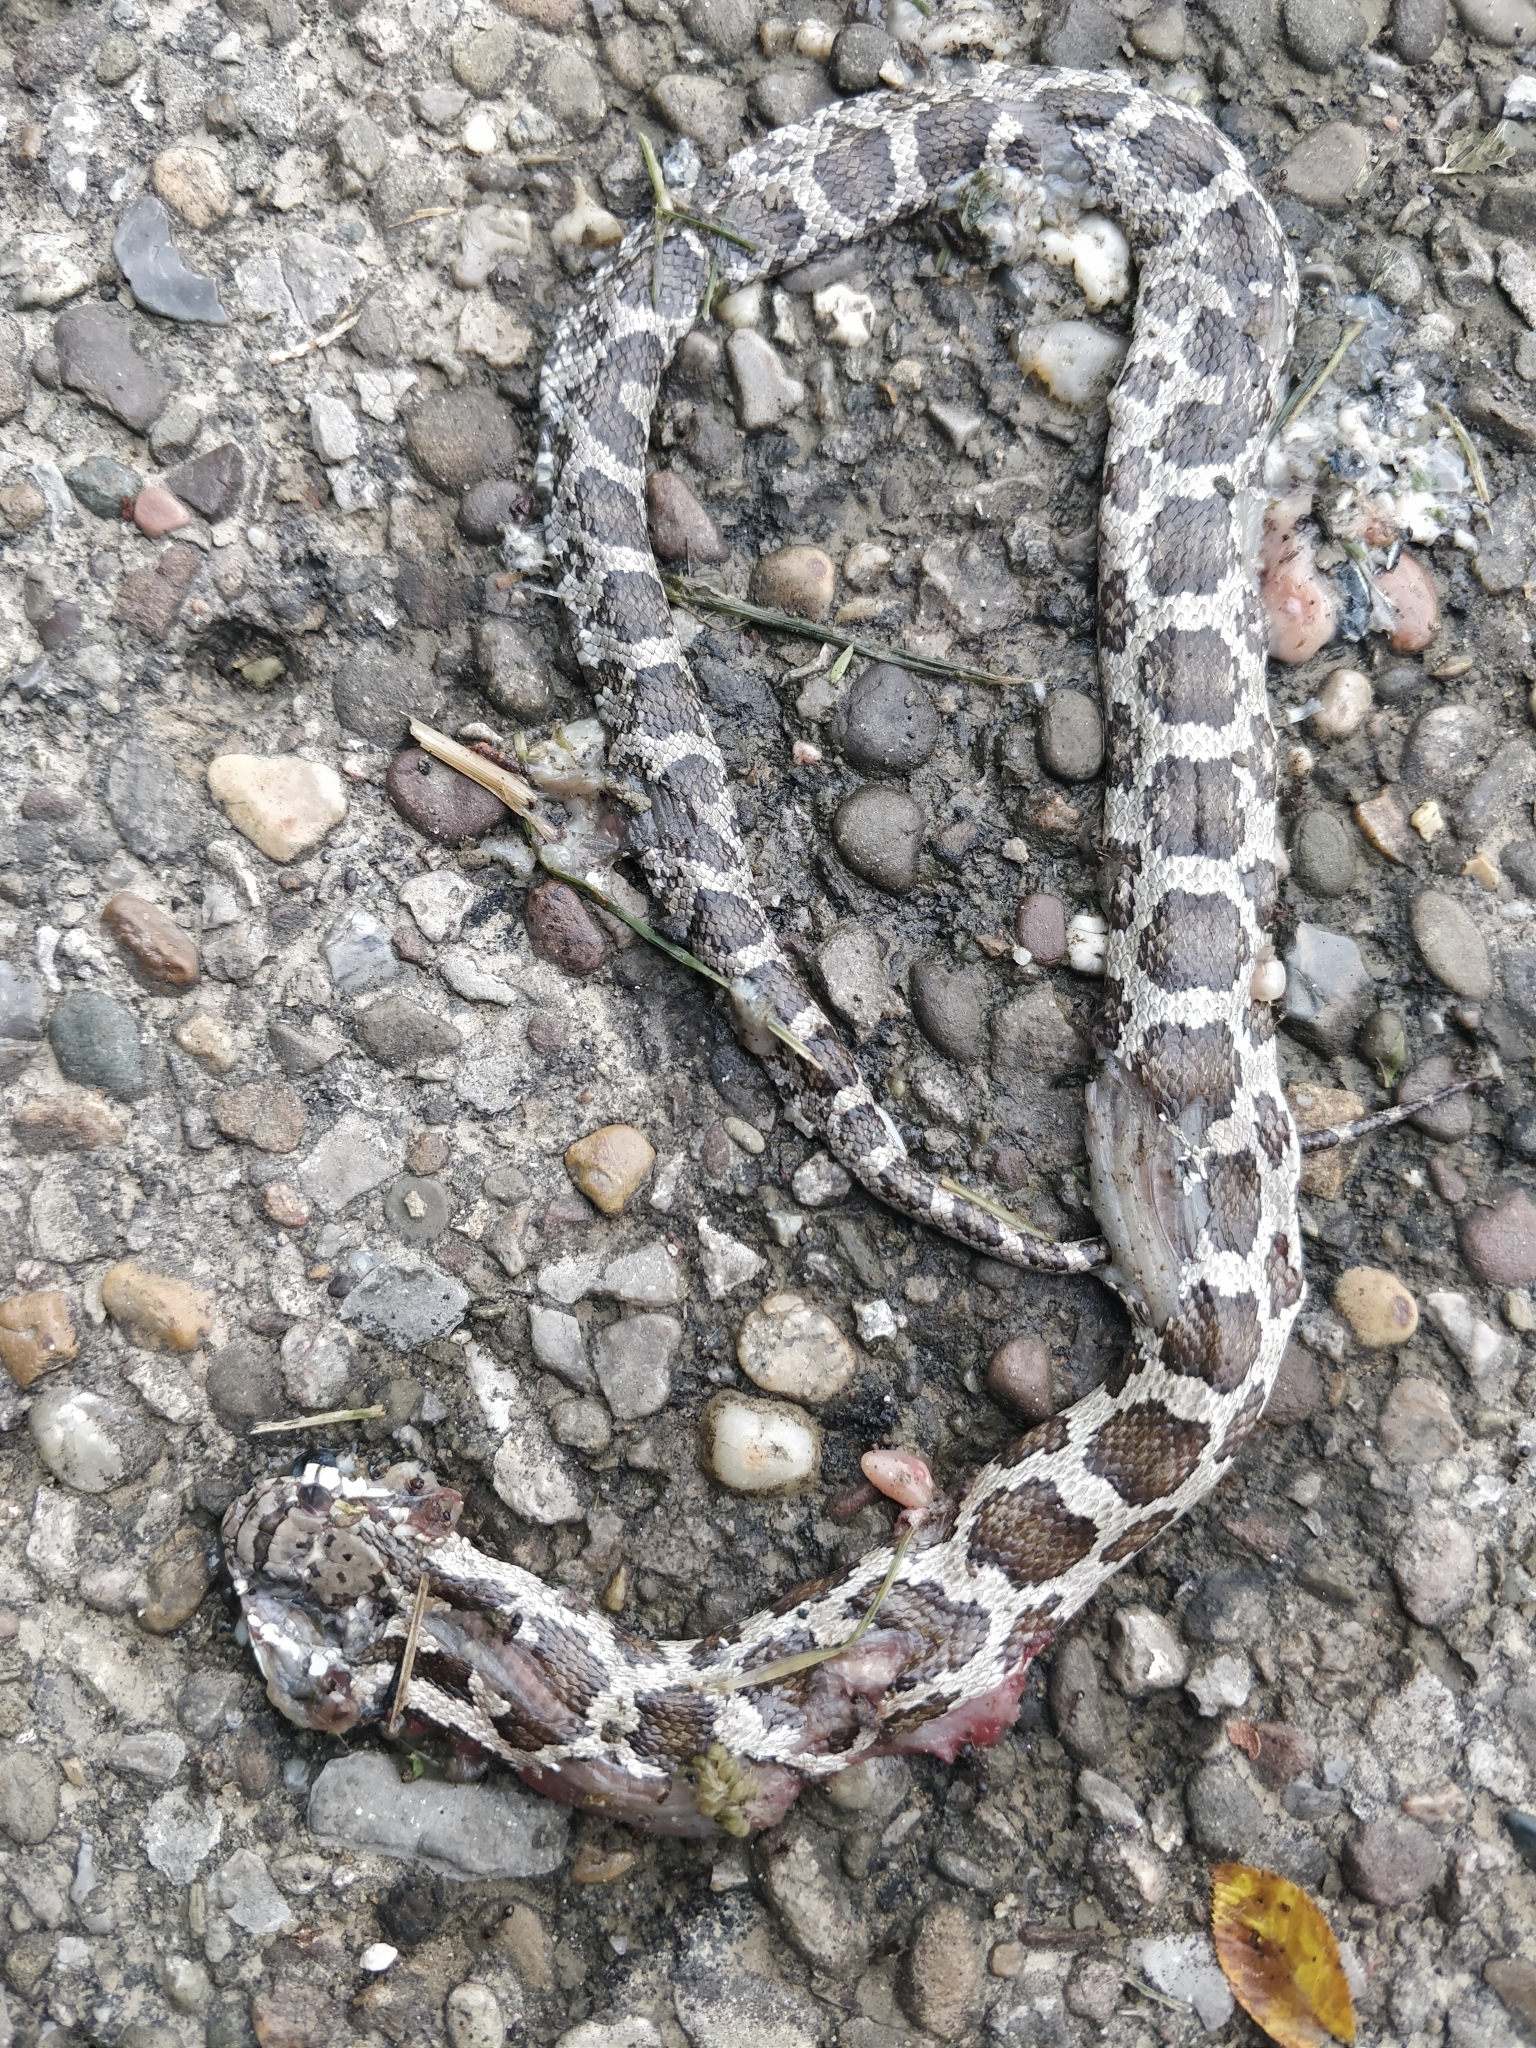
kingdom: Animalia
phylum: Chordata
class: Squamata
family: Colubridae
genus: Pantherophis
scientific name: Pantherophis spiloides
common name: Gray rat snake
